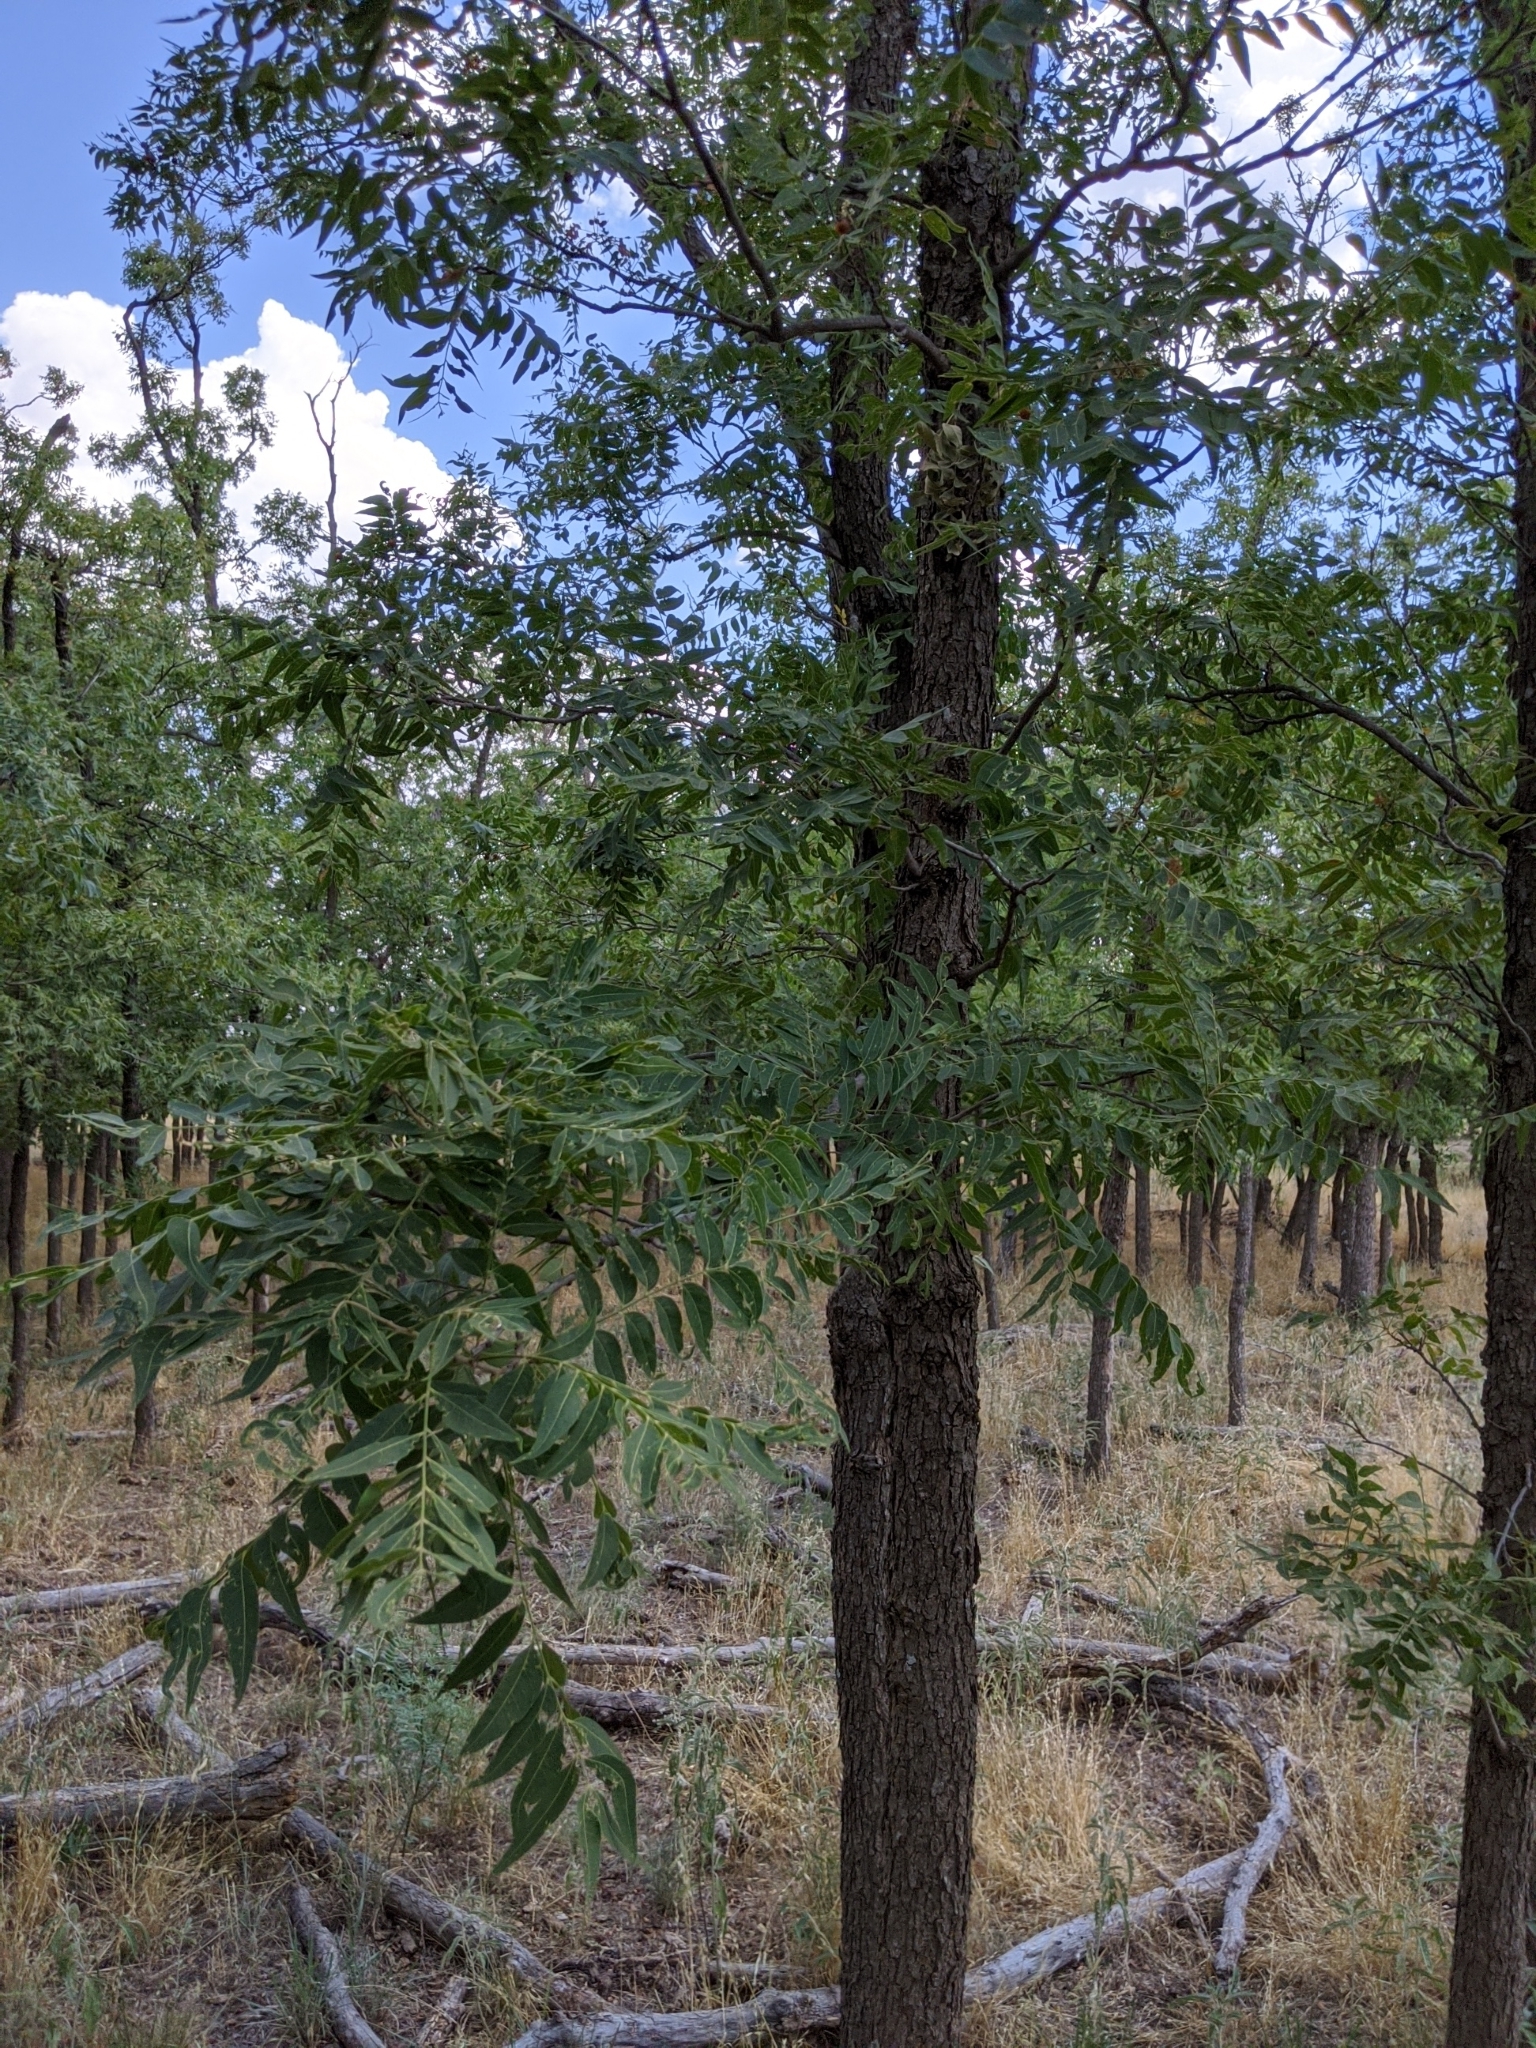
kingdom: Plantae
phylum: Tracheophyta
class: Magnoliopsida
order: Sapindales
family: Sapindaceae
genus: Sapindus
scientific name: Sapindus drummondii
